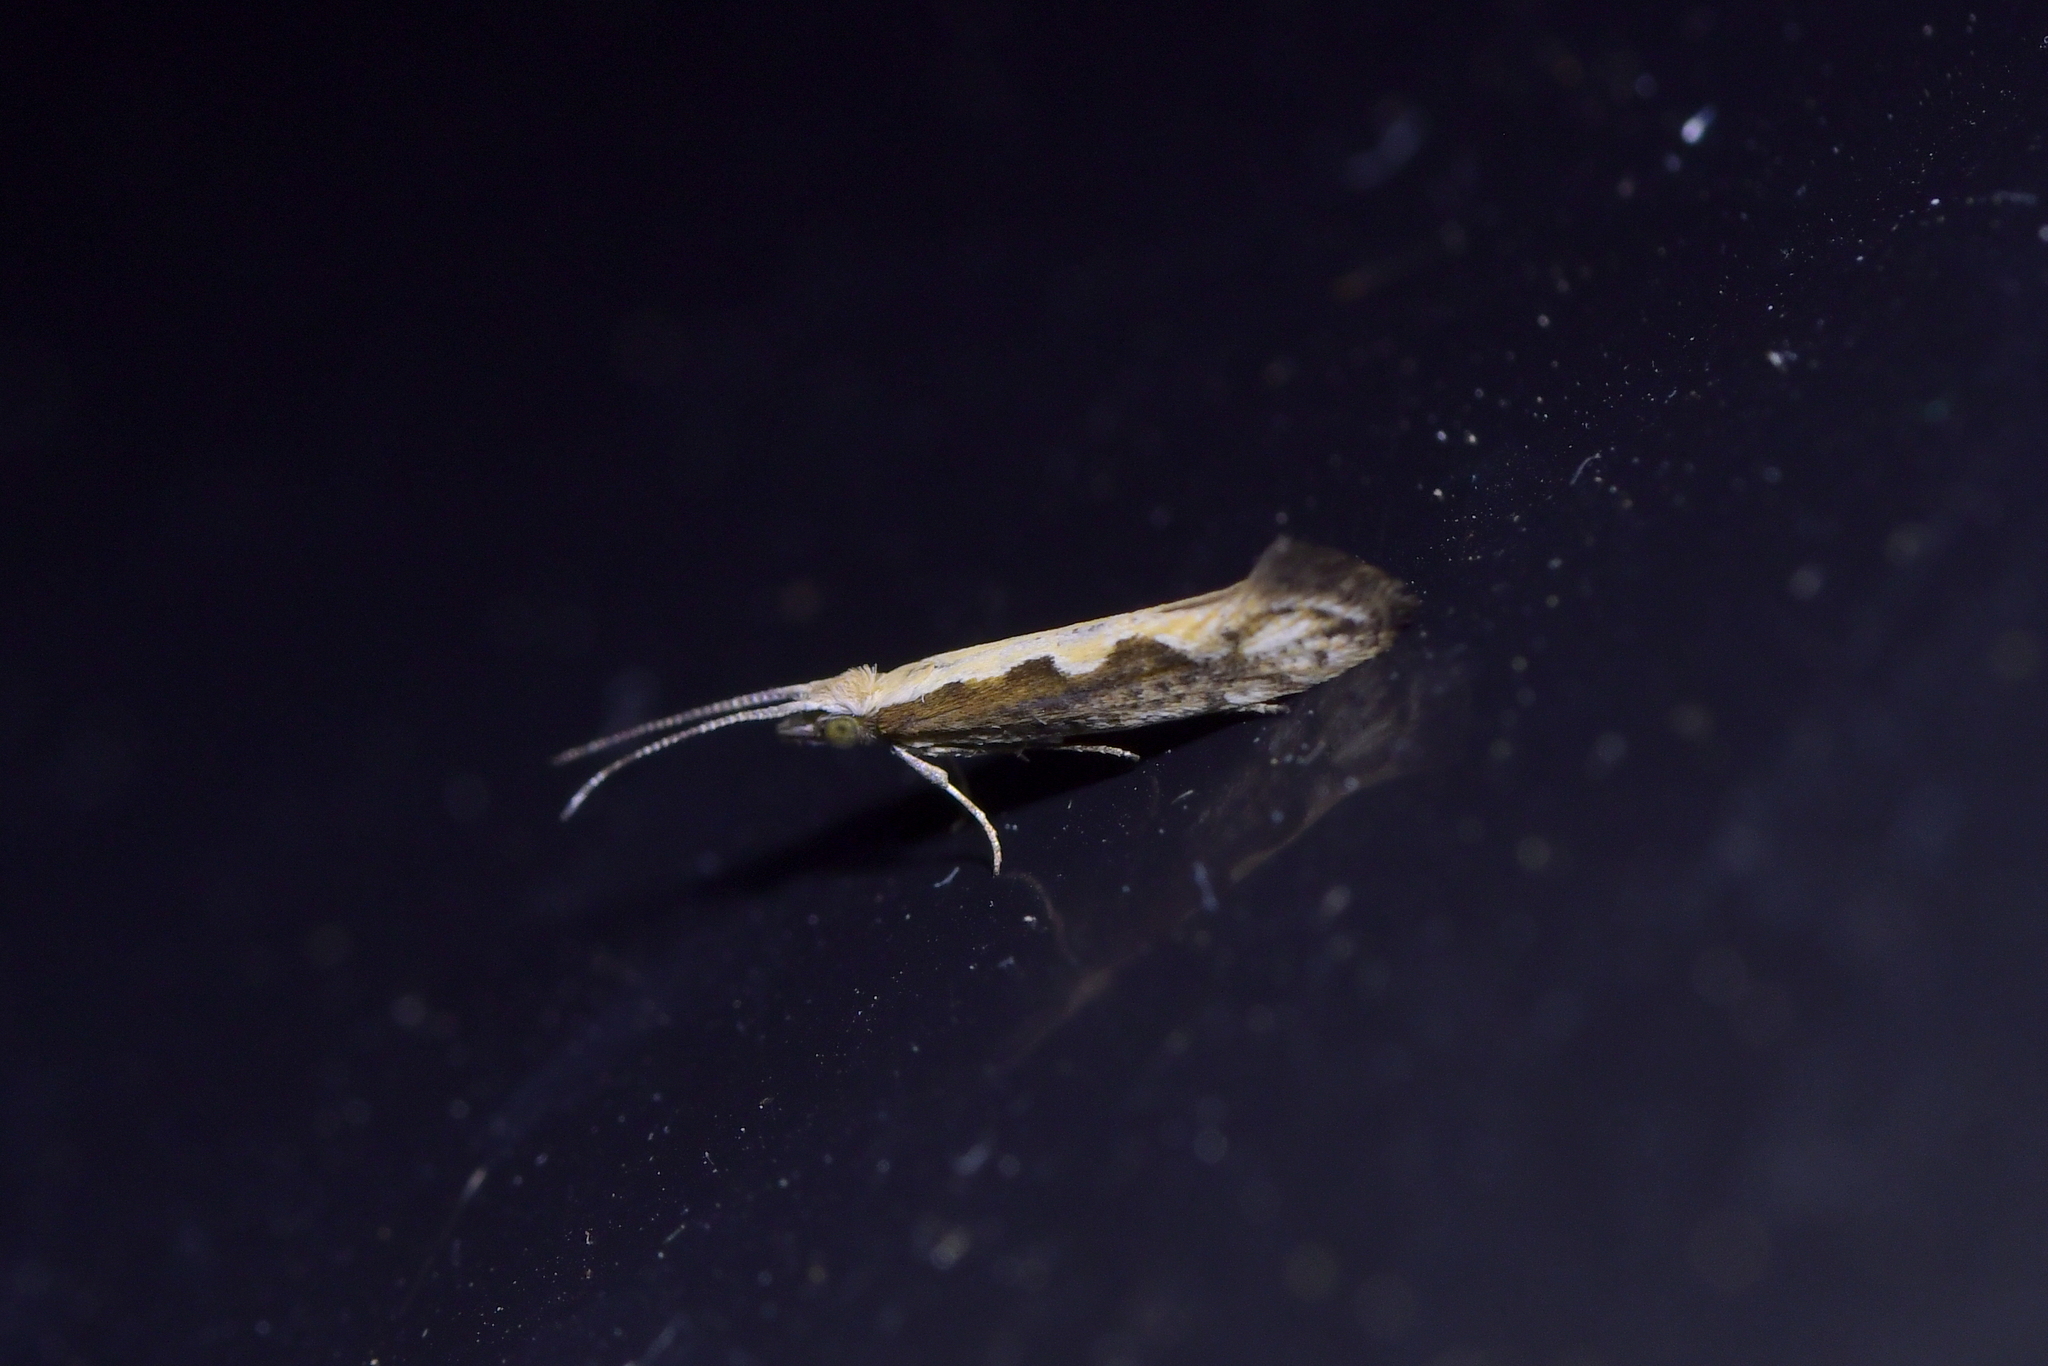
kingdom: Animalia
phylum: Arthropoda
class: Insecta
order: Lepidoptera
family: Plutellidae
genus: Plutella
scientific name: Plutella xylostella
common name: Diamond-back moth
